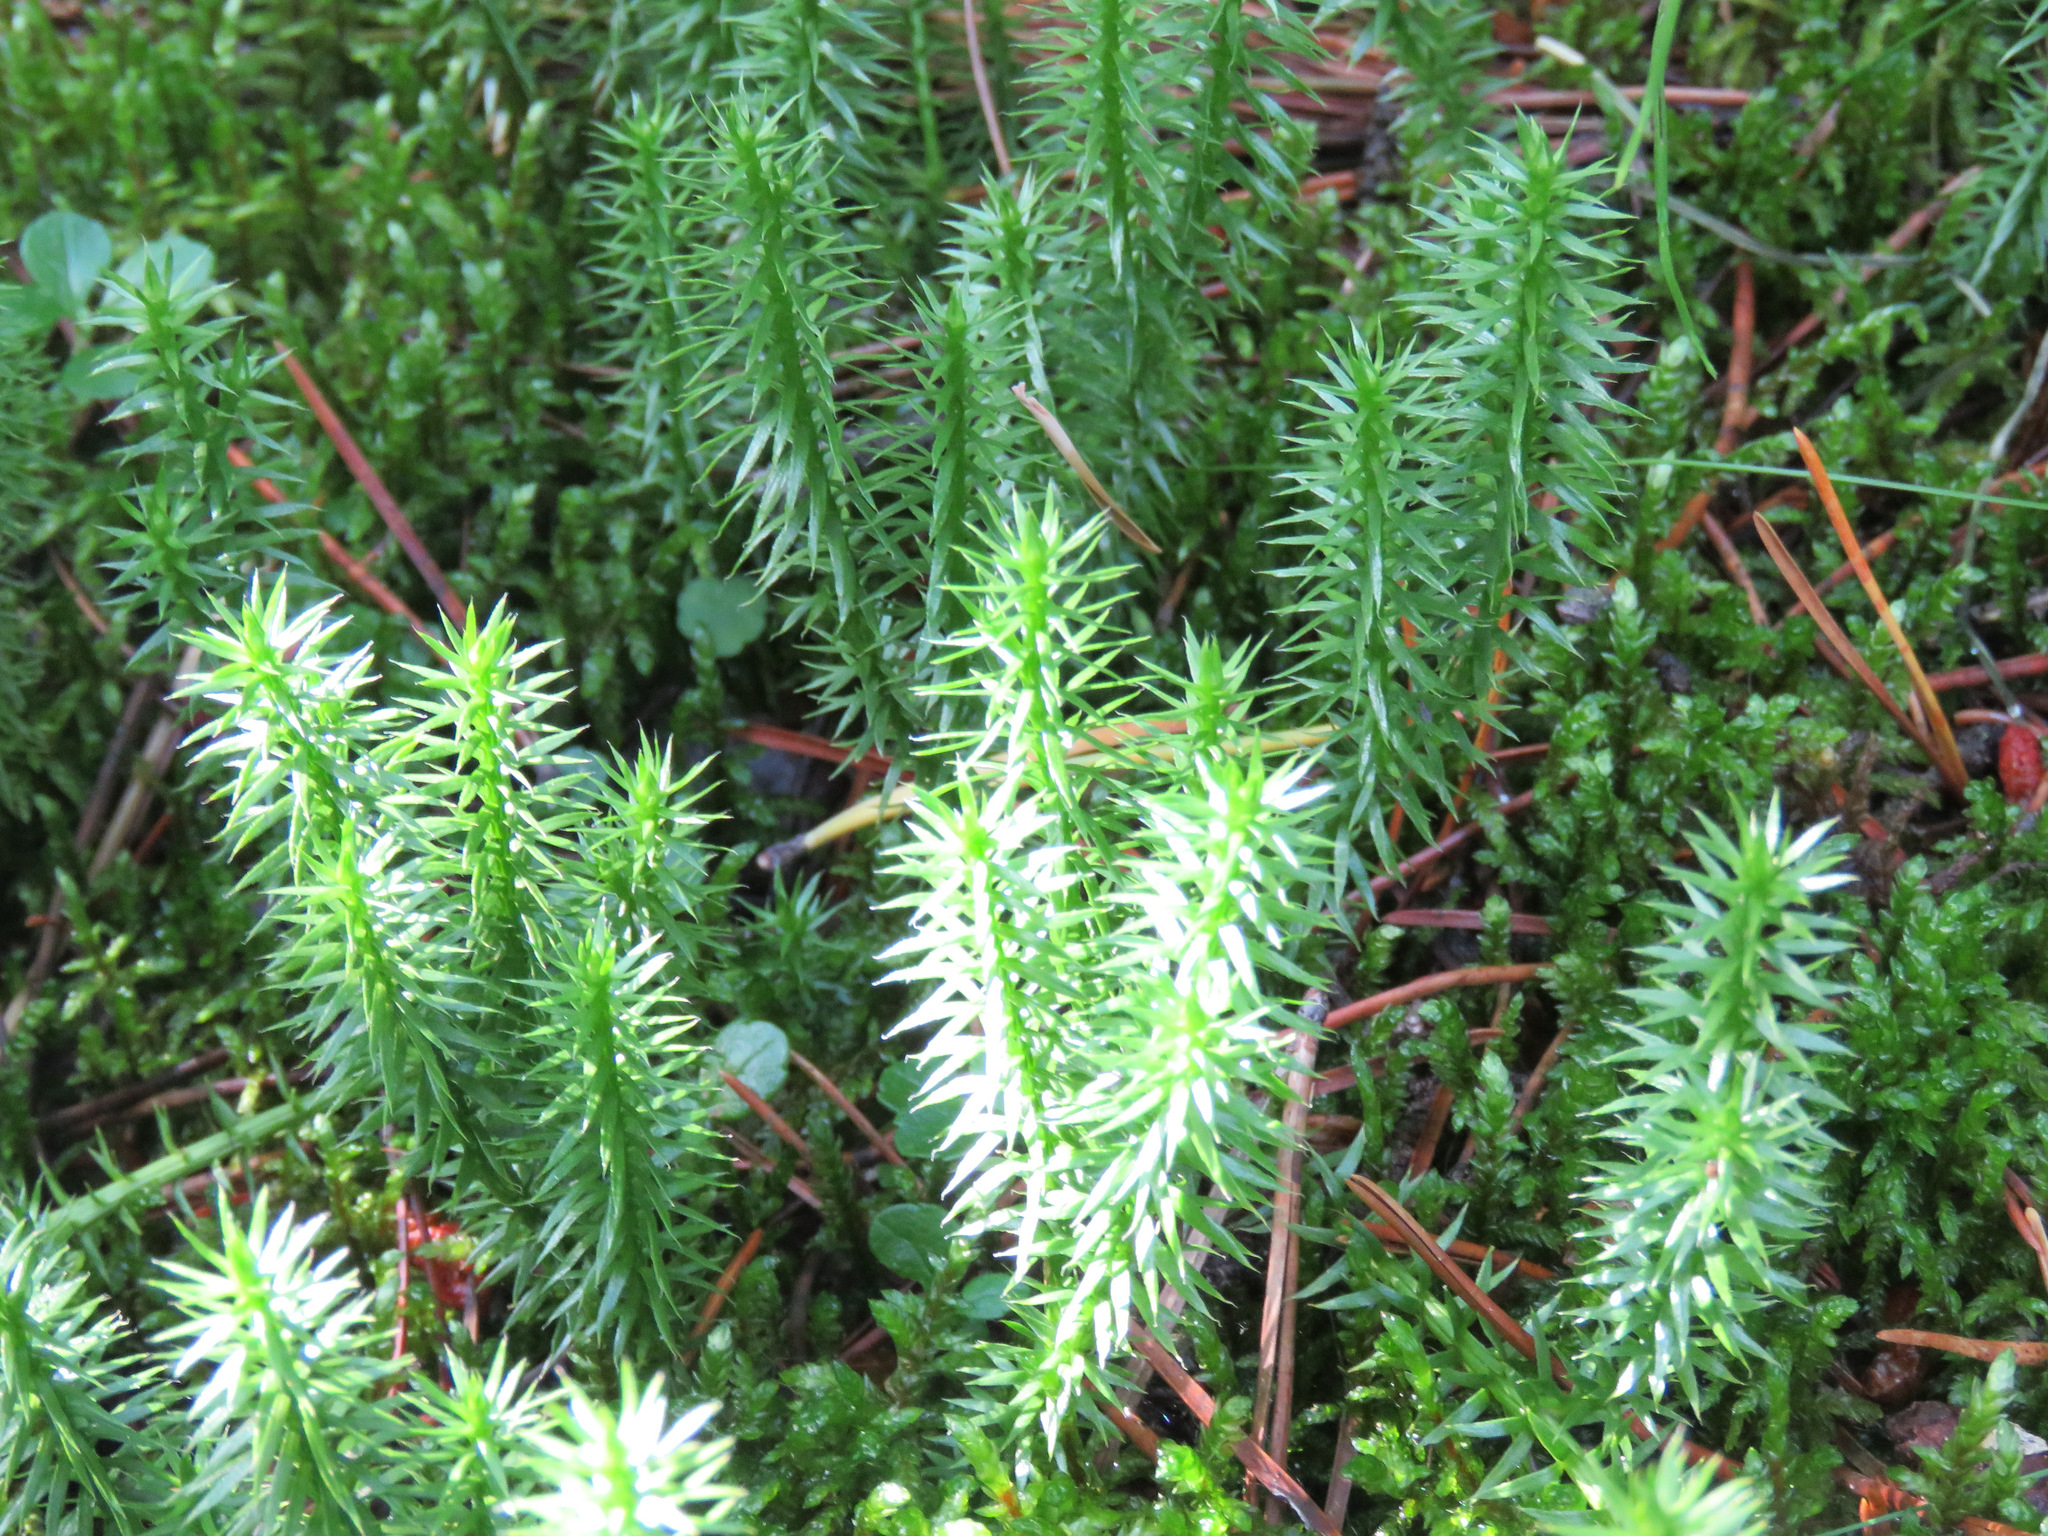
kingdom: Plantae
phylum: Tracheophyta
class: Lycopodiopsida
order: Lycopodiales
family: Lycopodiaceae
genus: Spinulum
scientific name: Spinulum annotinum
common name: Interrupted club-moss
